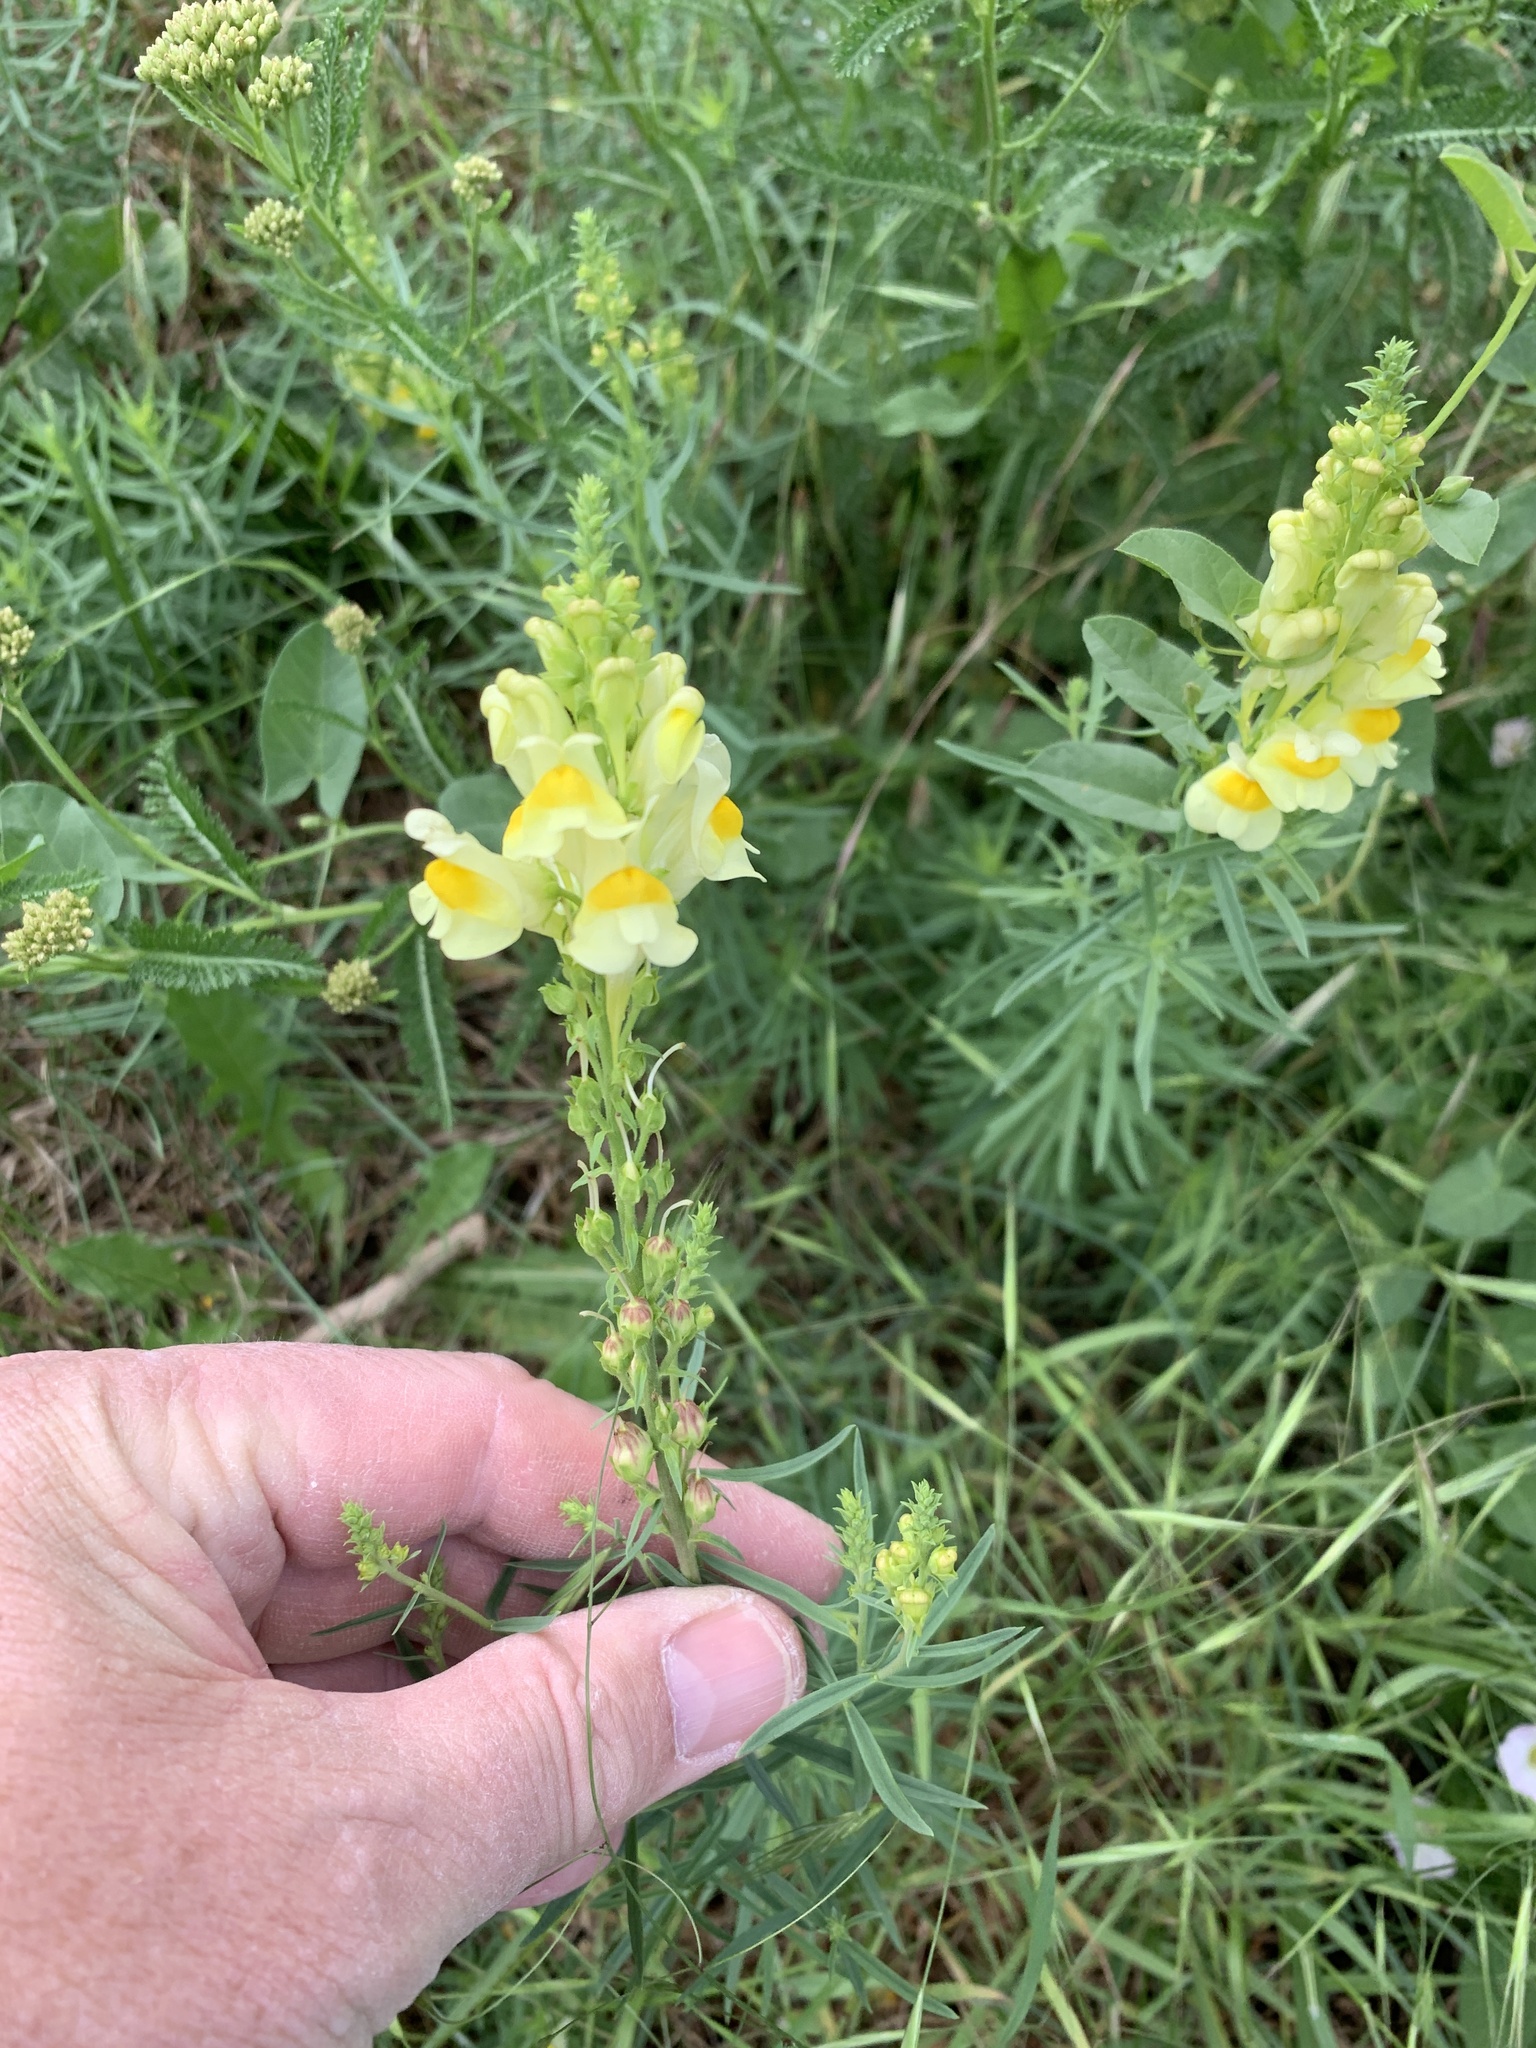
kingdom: Plantae
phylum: Tracheophyta
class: Magnoliopsida
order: Lamiales
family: Plantaginaceae
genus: Linaria
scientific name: Linaria vulgaris
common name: Butter and eggs
